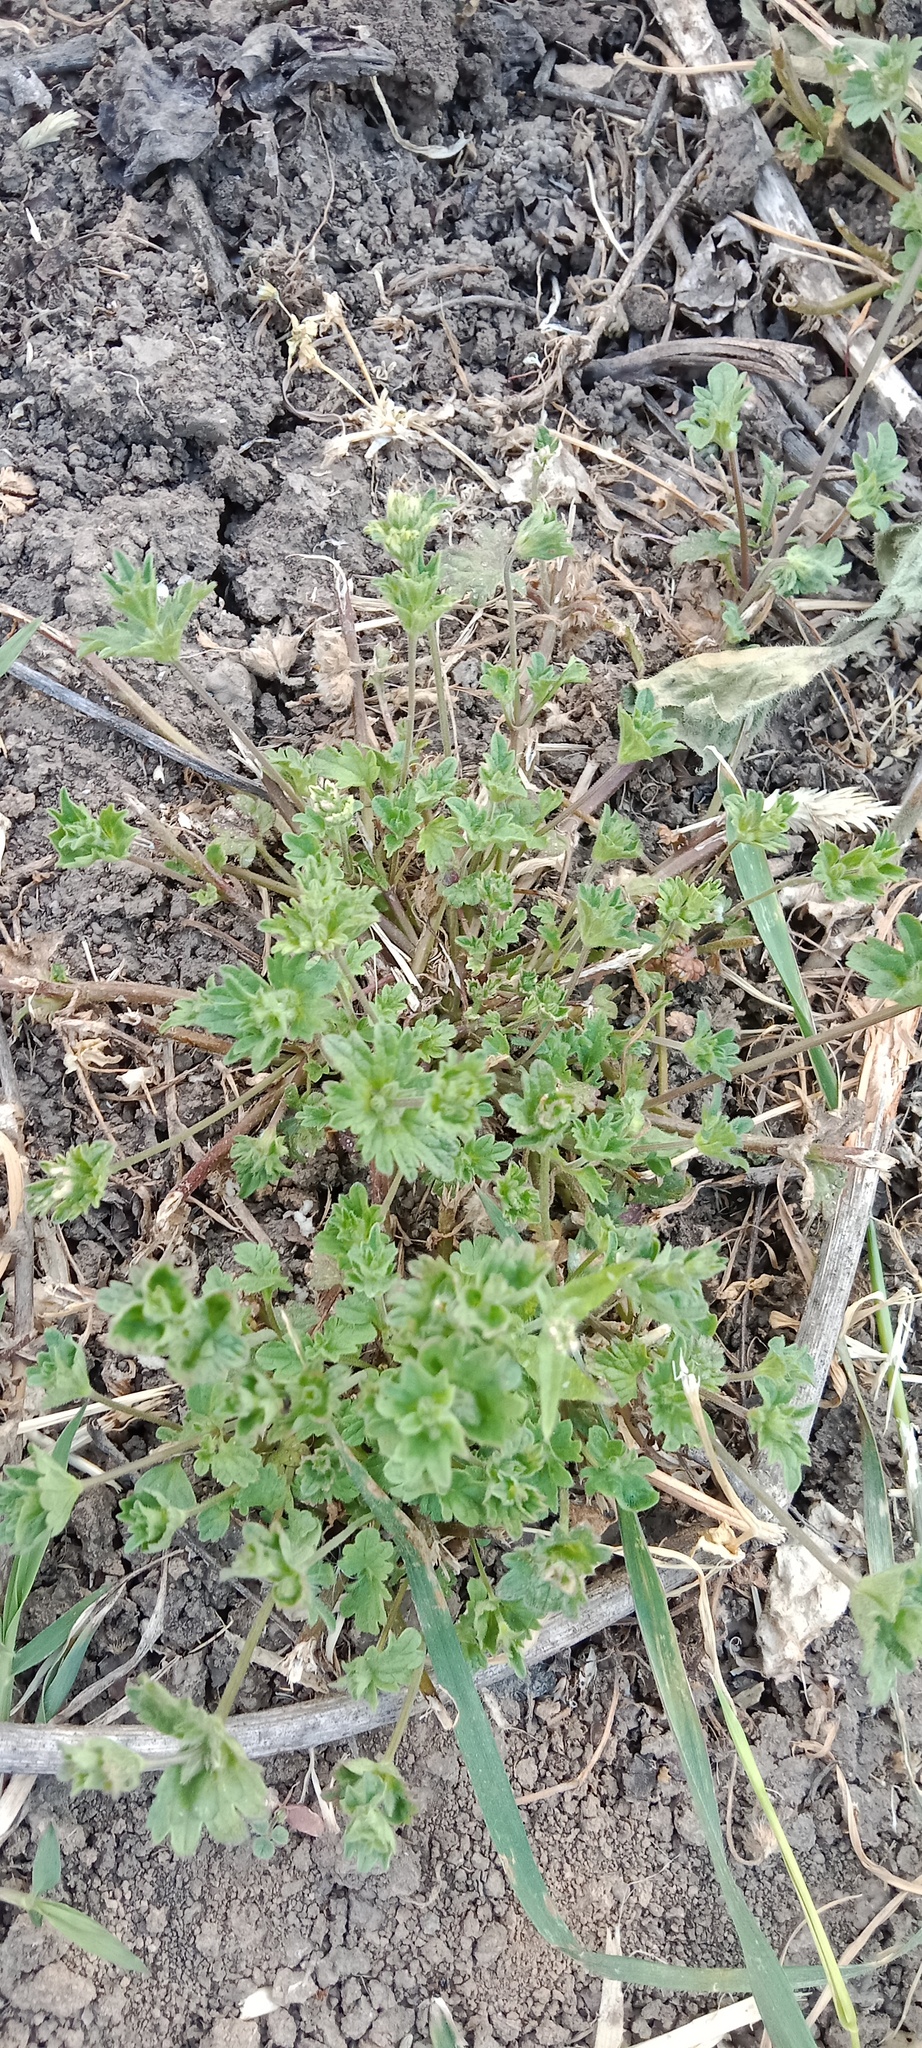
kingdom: Plantae
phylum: Tracheophyta
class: Magnoliopsida
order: Lamiales
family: Lamiaceae
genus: Lamium
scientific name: Lamium amplexicaule
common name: Henbit dead-nettle
